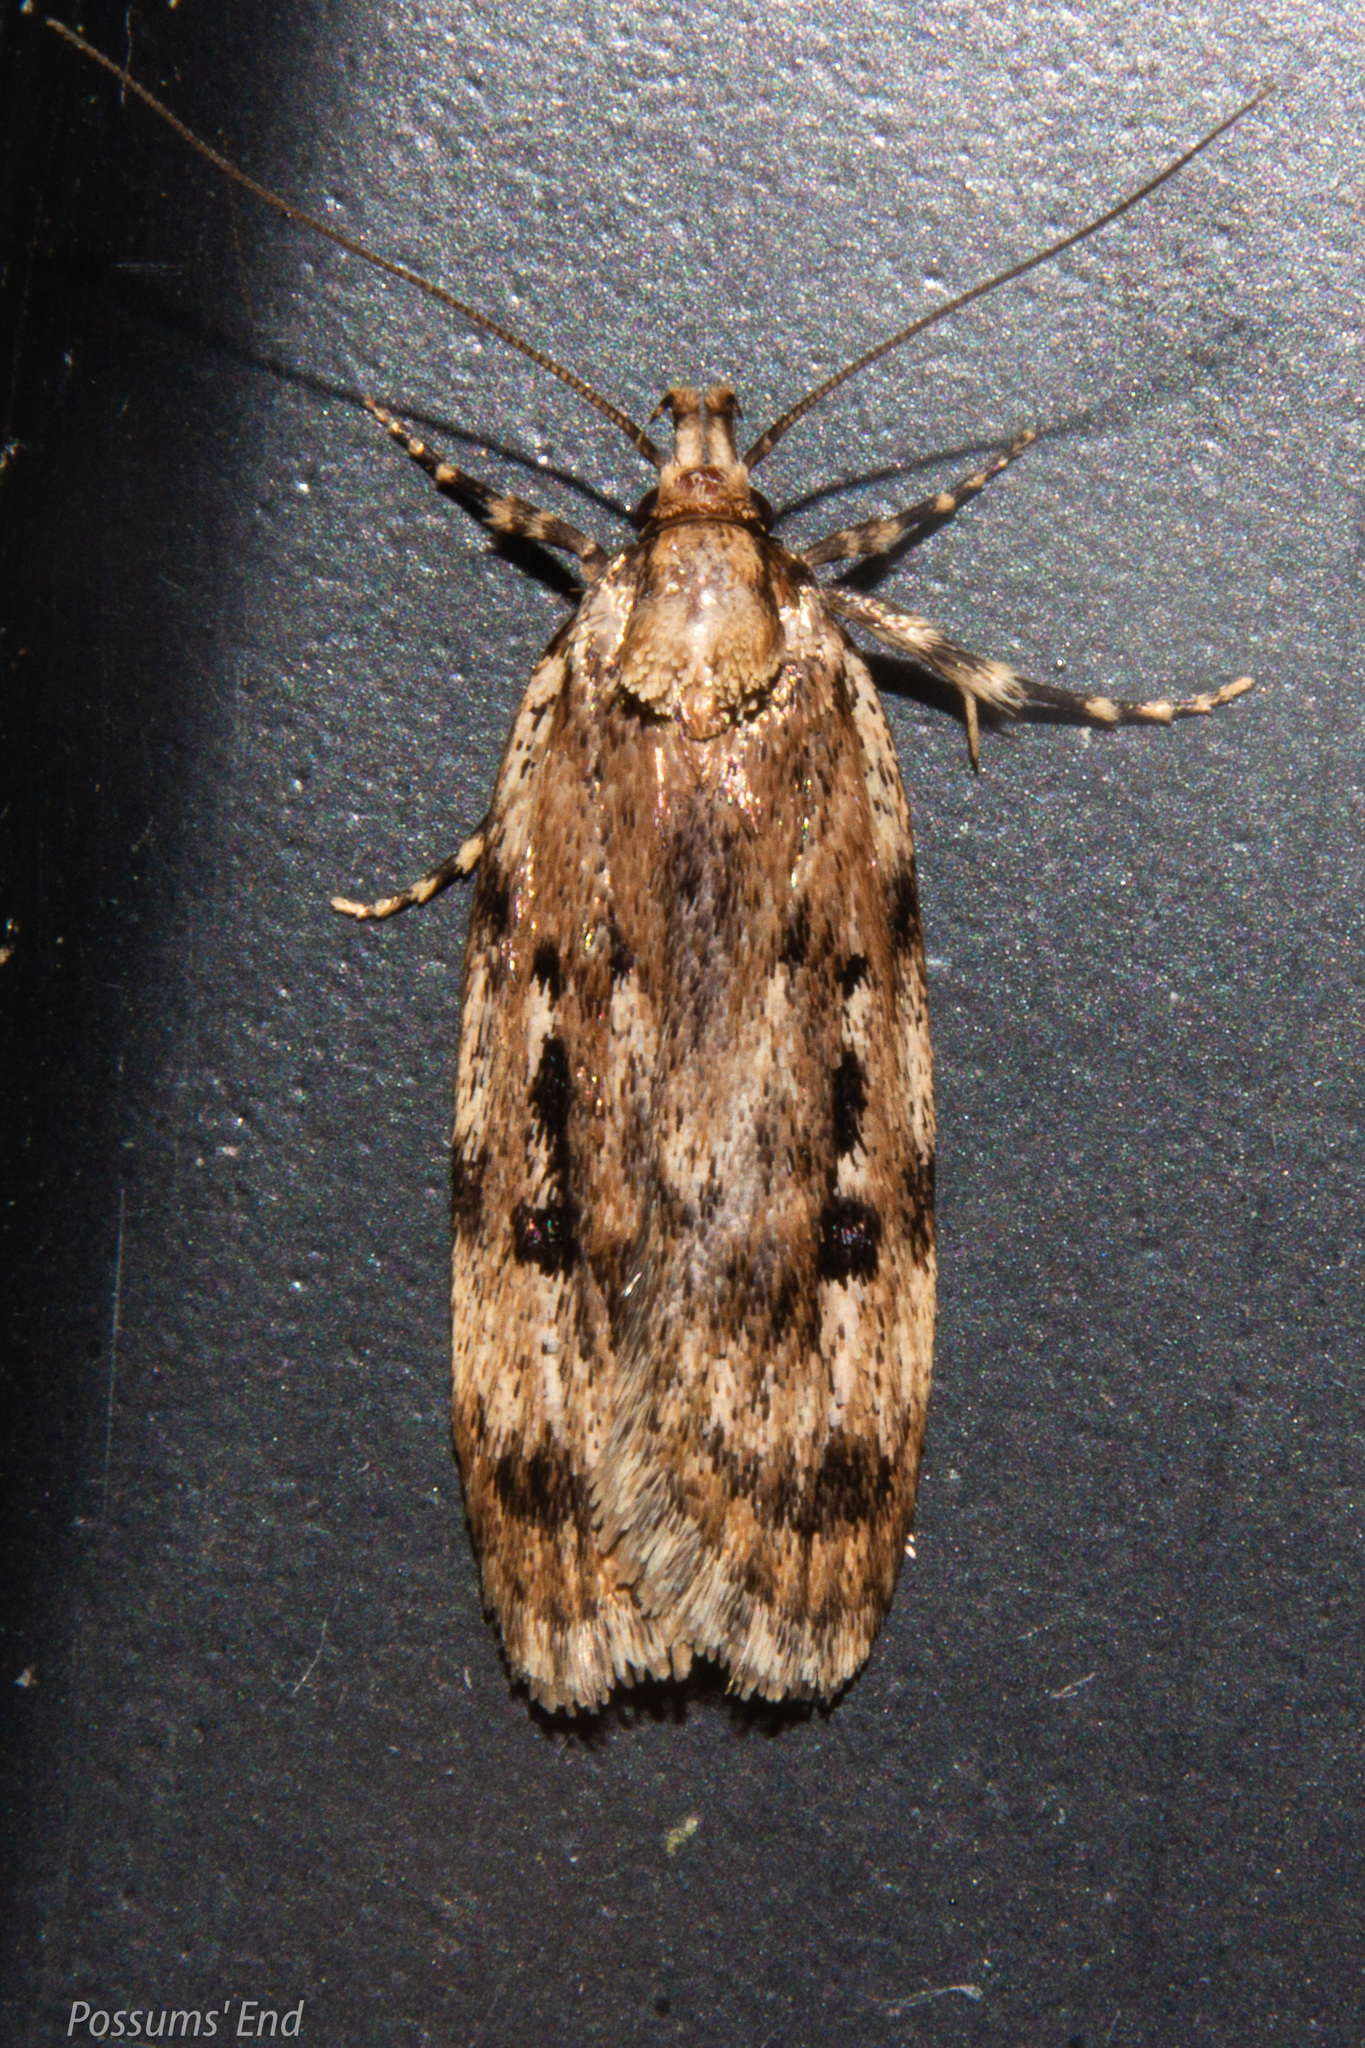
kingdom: Animalia
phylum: Arthropoda
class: Insecta
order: Lepidoptera
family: Oecophoridae
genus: Barea
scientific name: Barea exarcha
